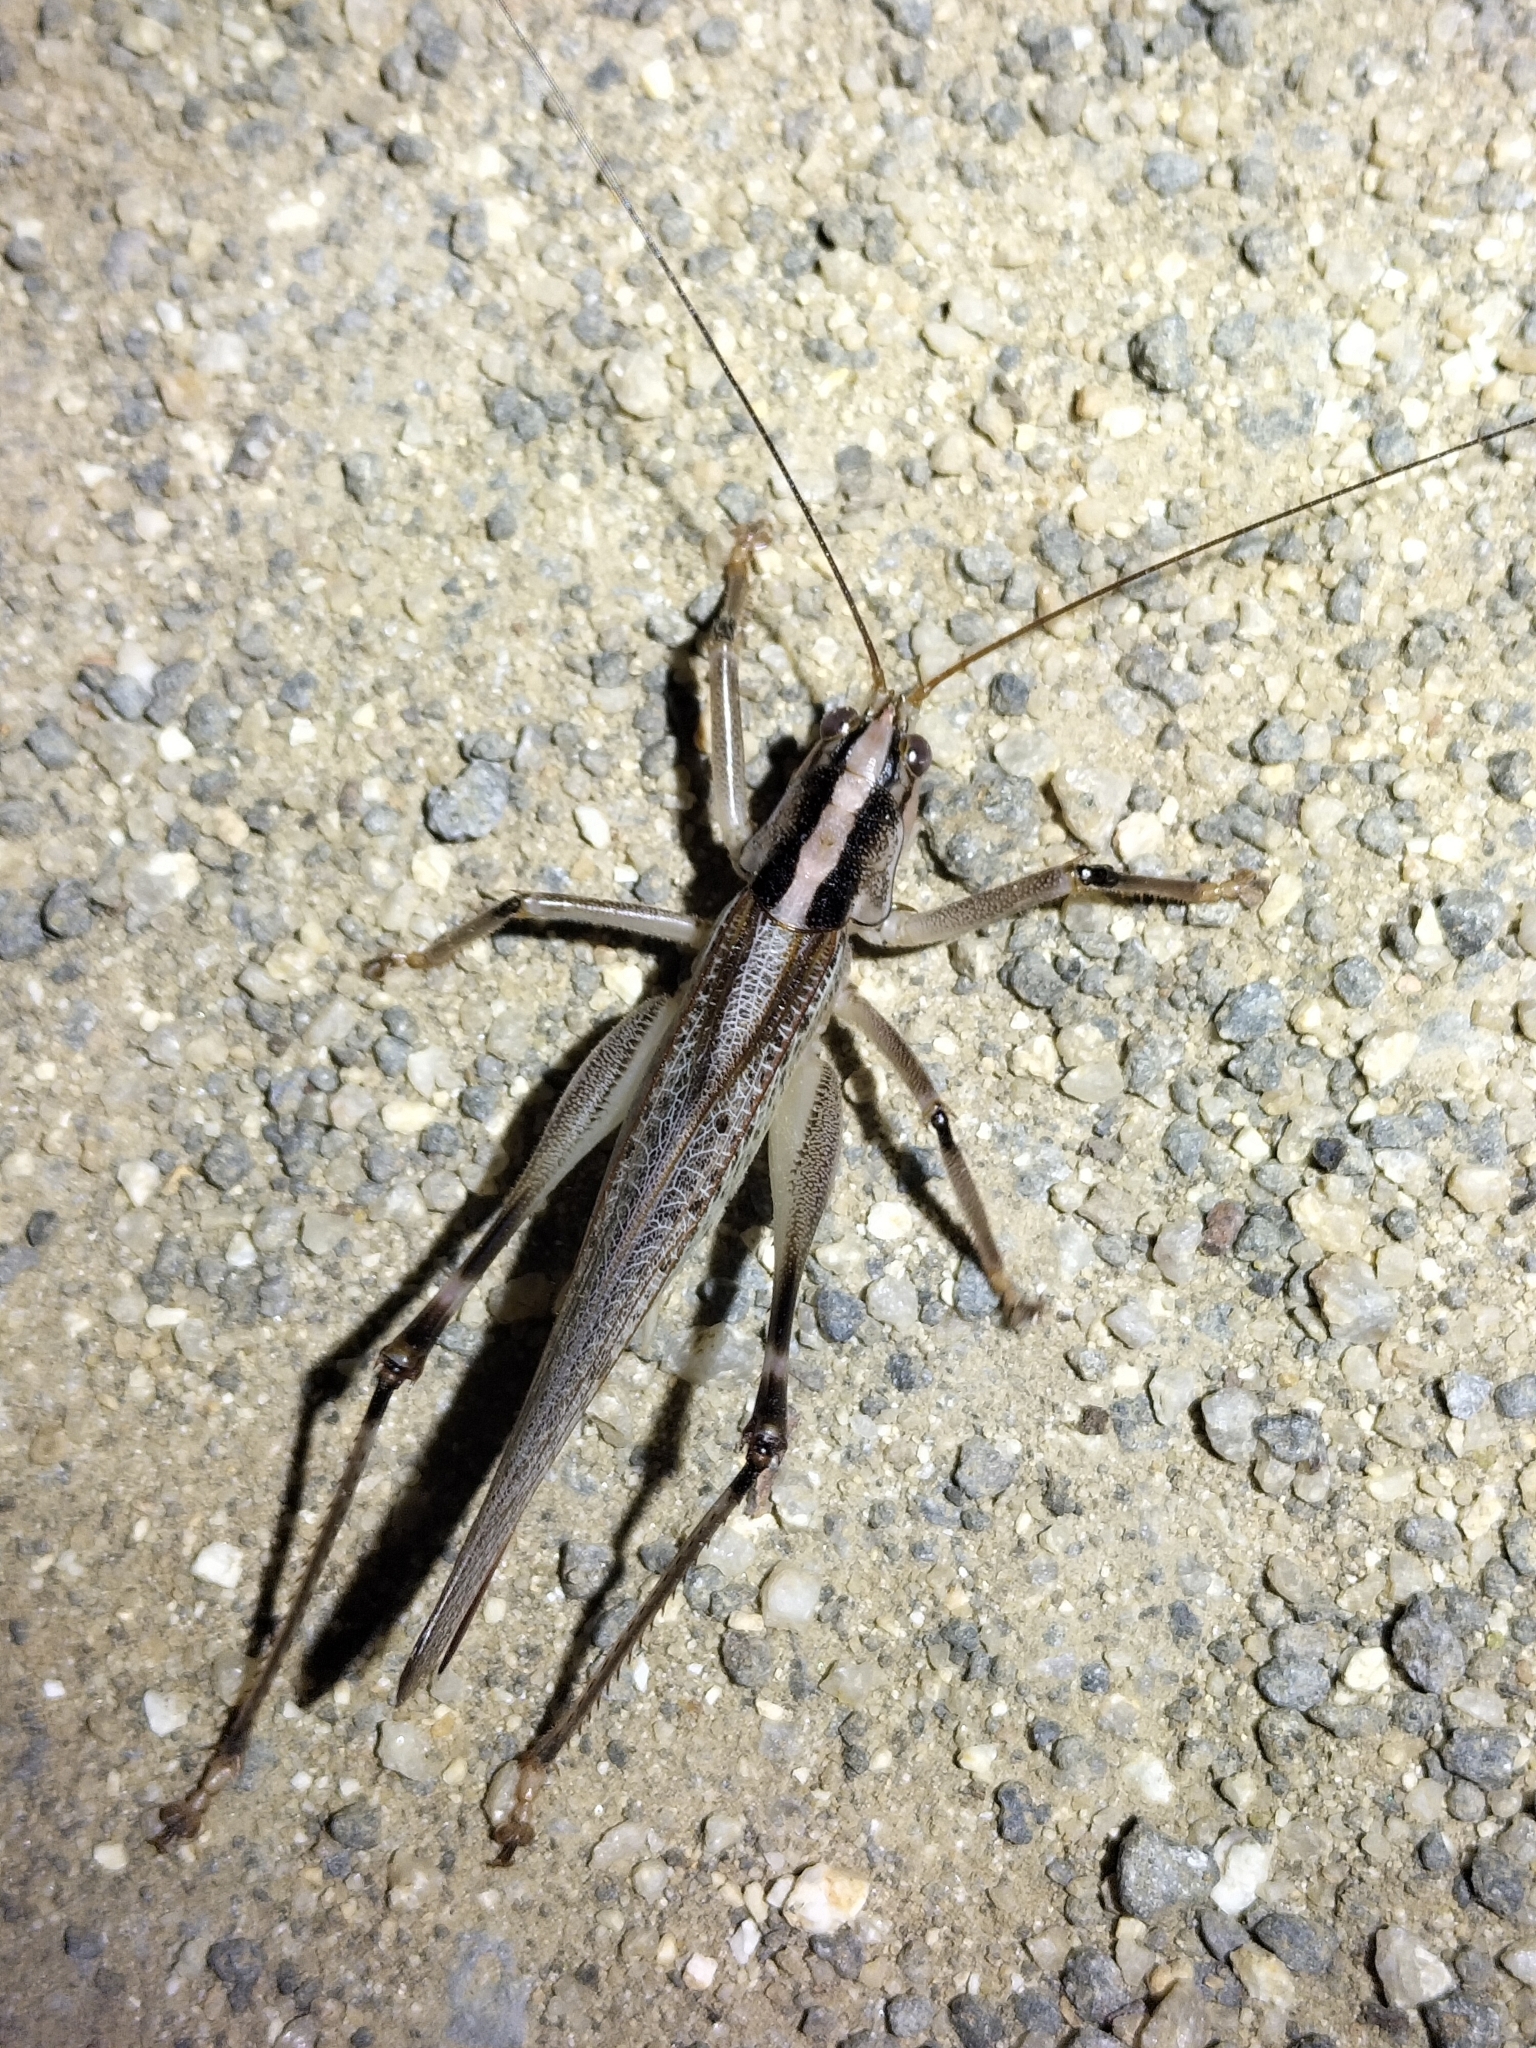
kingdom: Animalia
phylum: Arthropoda
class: Insecta
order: Orthoptera
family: Tettigoniidae
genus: Nicsara
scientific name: Nicsara bifasciata
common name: Striped nicsara
